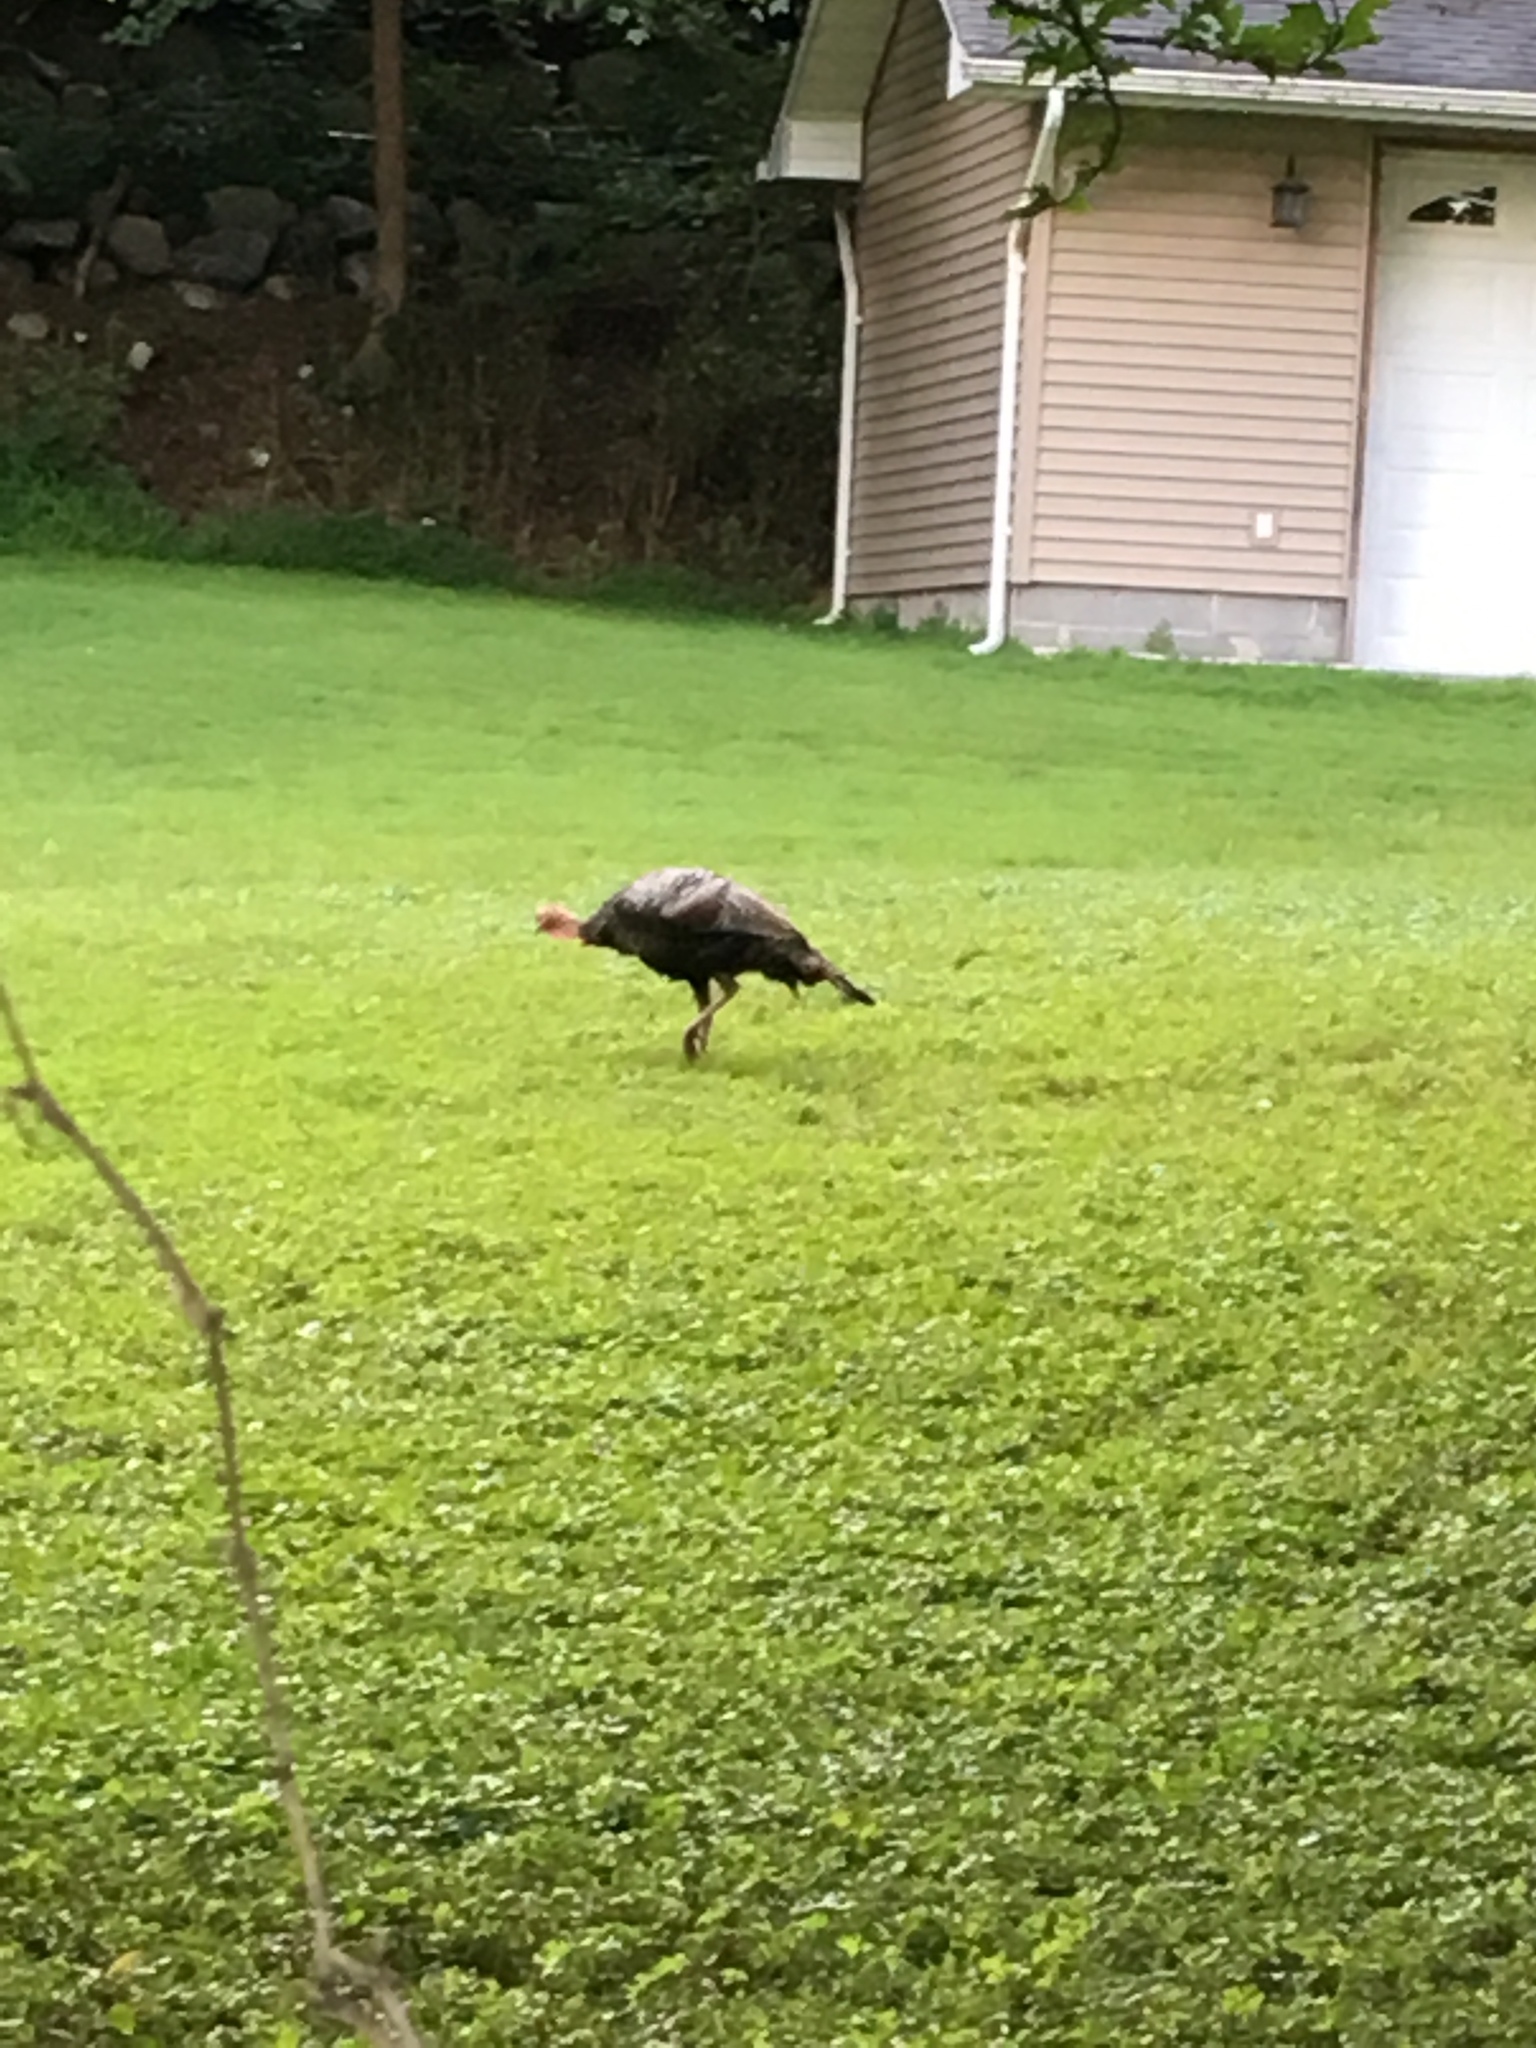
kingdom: Animalia
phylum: Chordata
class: Aves
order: Galliformes
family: Phasianidae
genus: Meleagris
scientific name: Meleagris gallopavo
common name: Wild turkey
